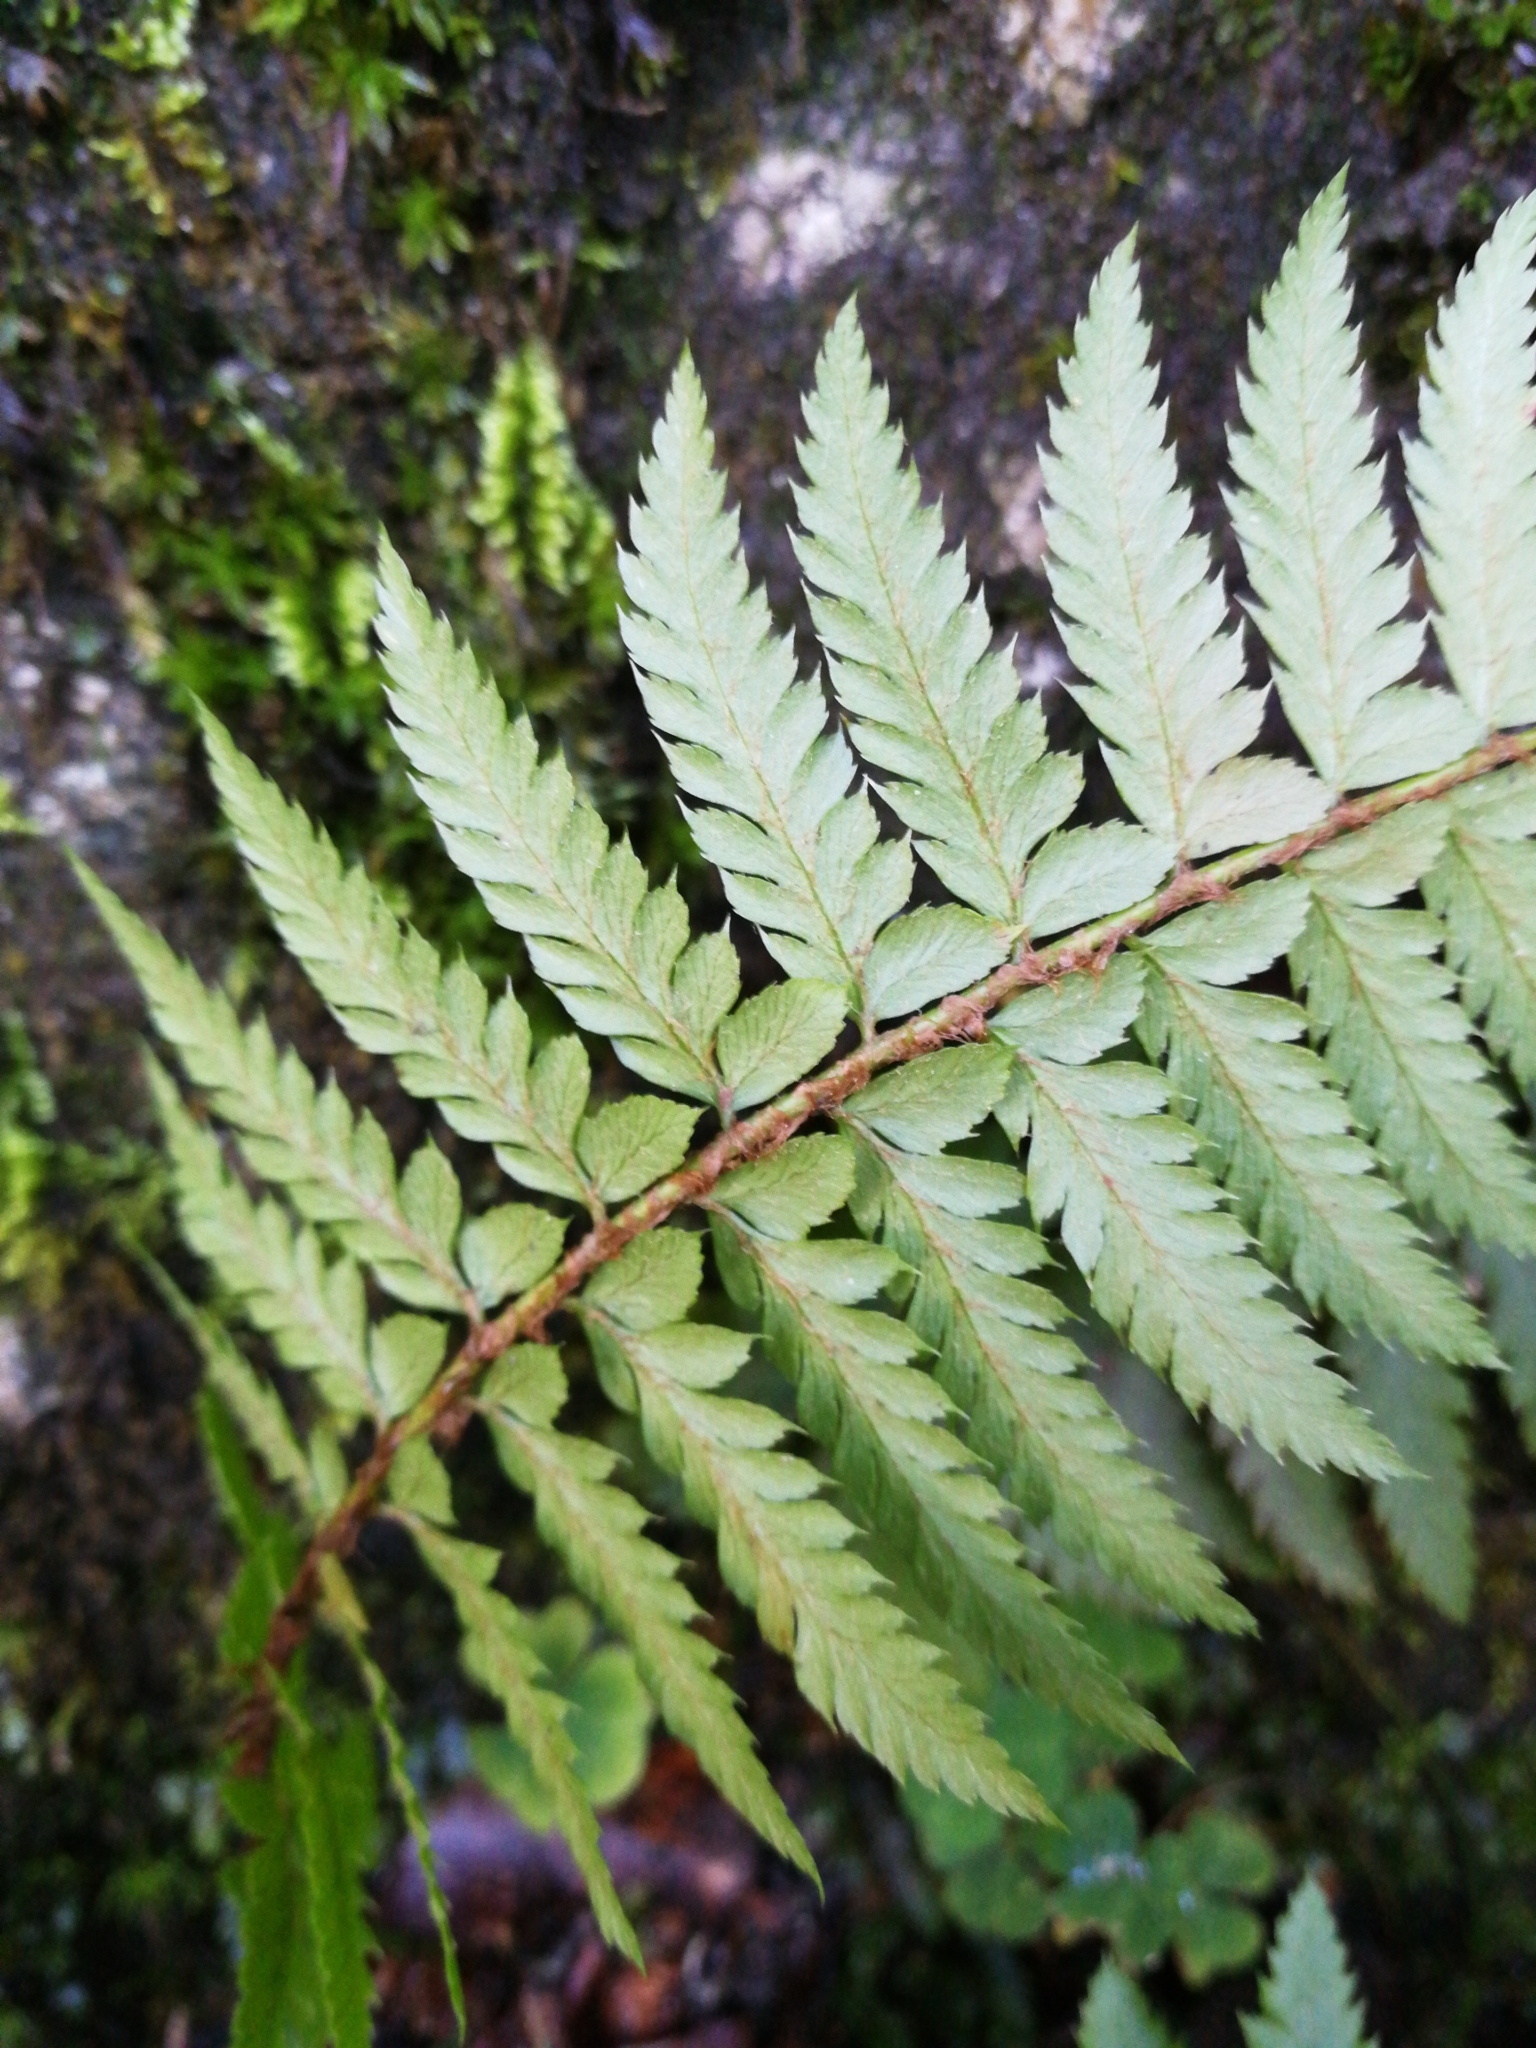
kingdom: Plantae
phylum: Tracheophyta
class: Polypodiopsida
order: Polypodiales
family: Dryopteridaceae
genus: Polystichum
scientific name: Polystichum aculeatum
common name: Hard shield-fern
